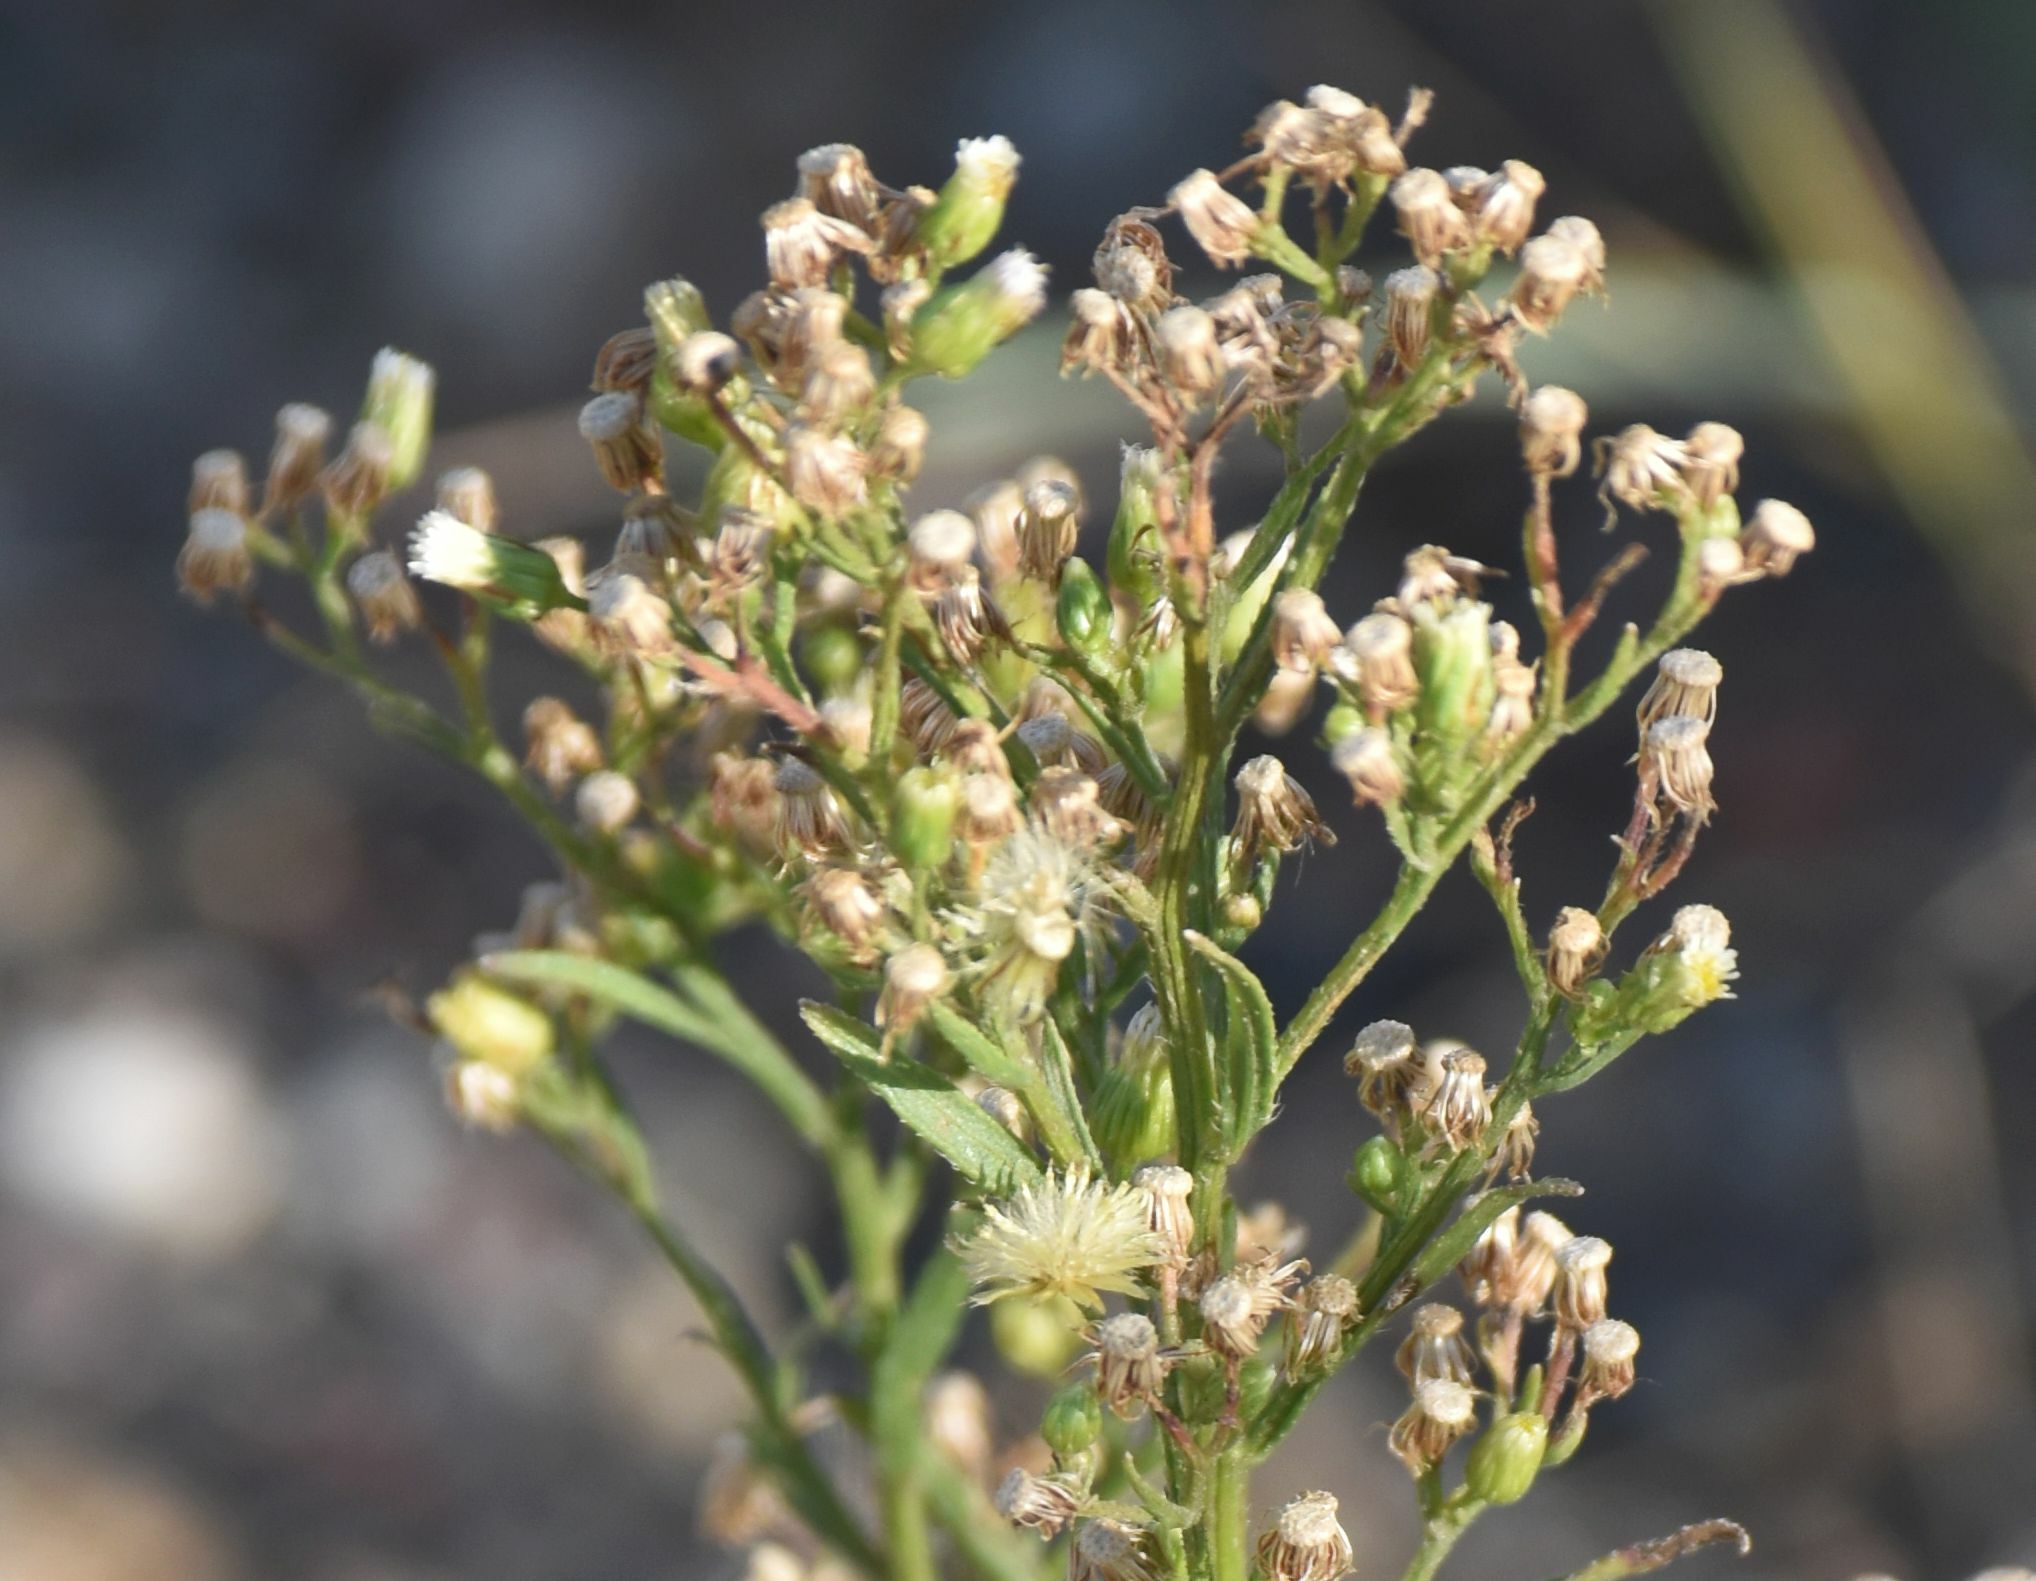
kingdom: Plantae
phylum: Tracheophyta
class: Magnoliopsida
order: Asterales
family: Asteraceae
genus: Erigeron
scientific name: Erigeron canadensis
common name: Canadian fleabane
